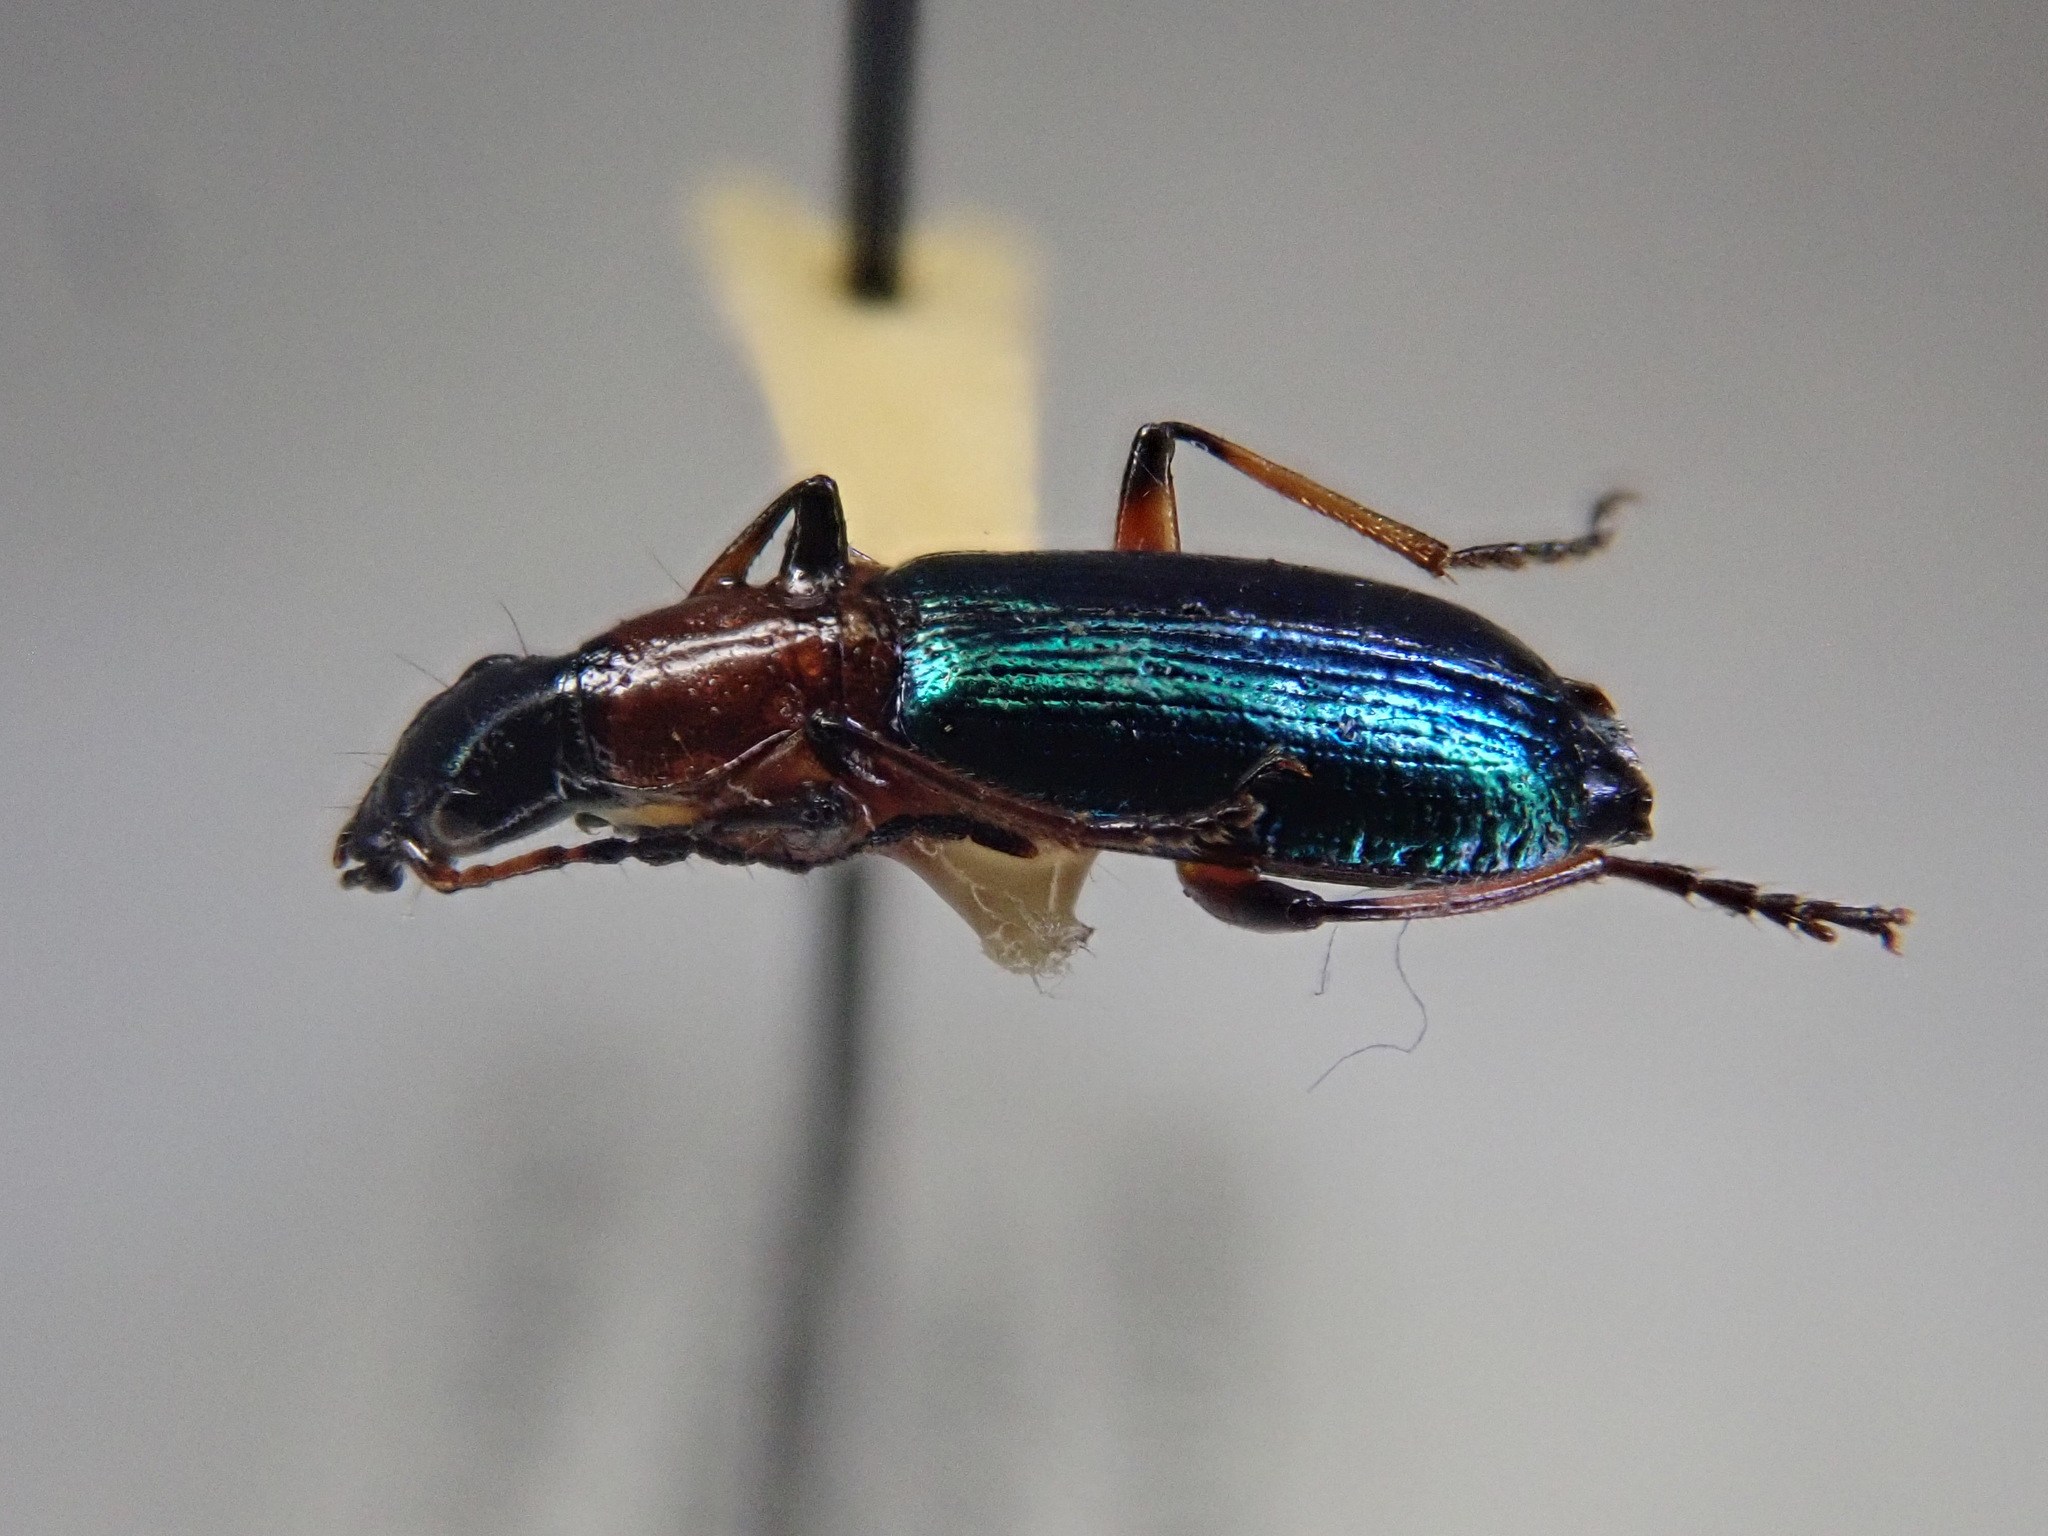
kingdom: Animalia
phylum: Arthropoda
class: Insecta
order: Coleoptera
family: Carabidae
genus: Calleida
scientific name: Calleida punctata
